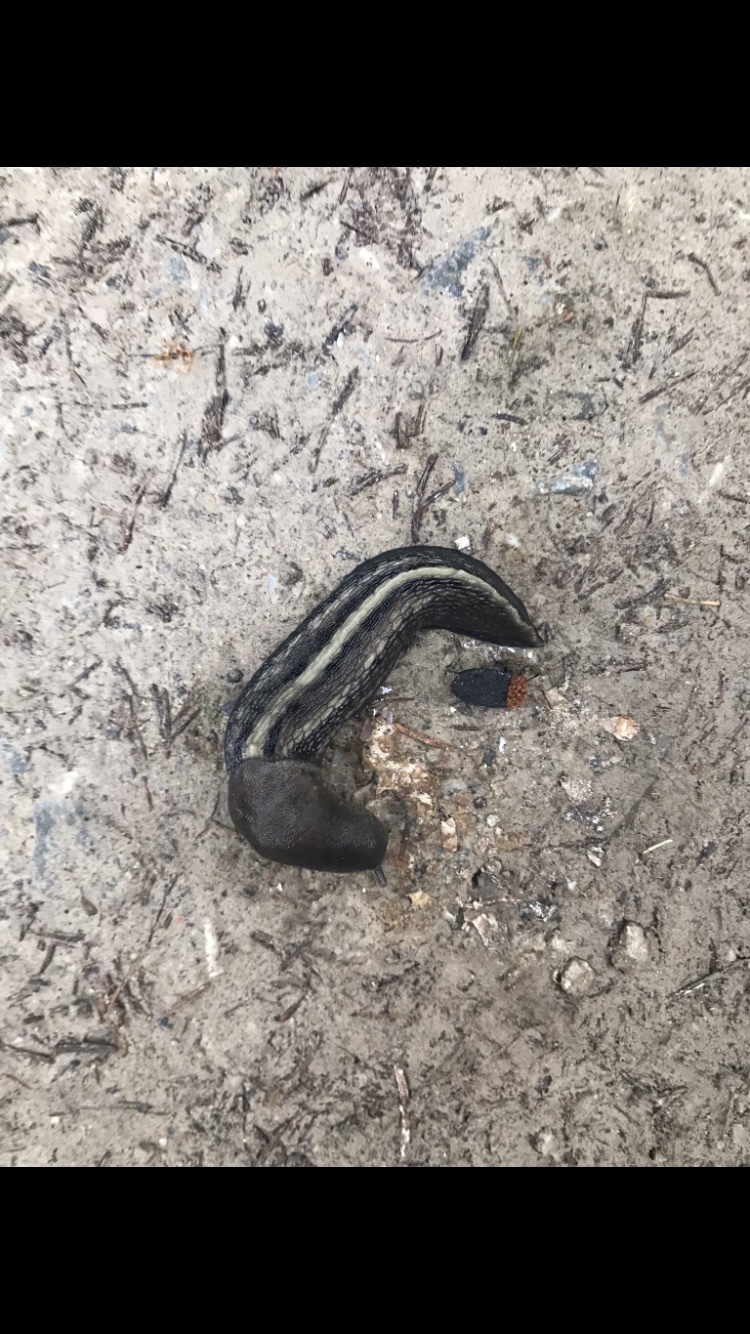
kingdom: Animalia
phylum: Mollusca
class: Gastropoda
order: Stylommatophora
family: Limacidae
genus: Limax
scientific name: Limax cinereoniger
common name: Ash-black slug
